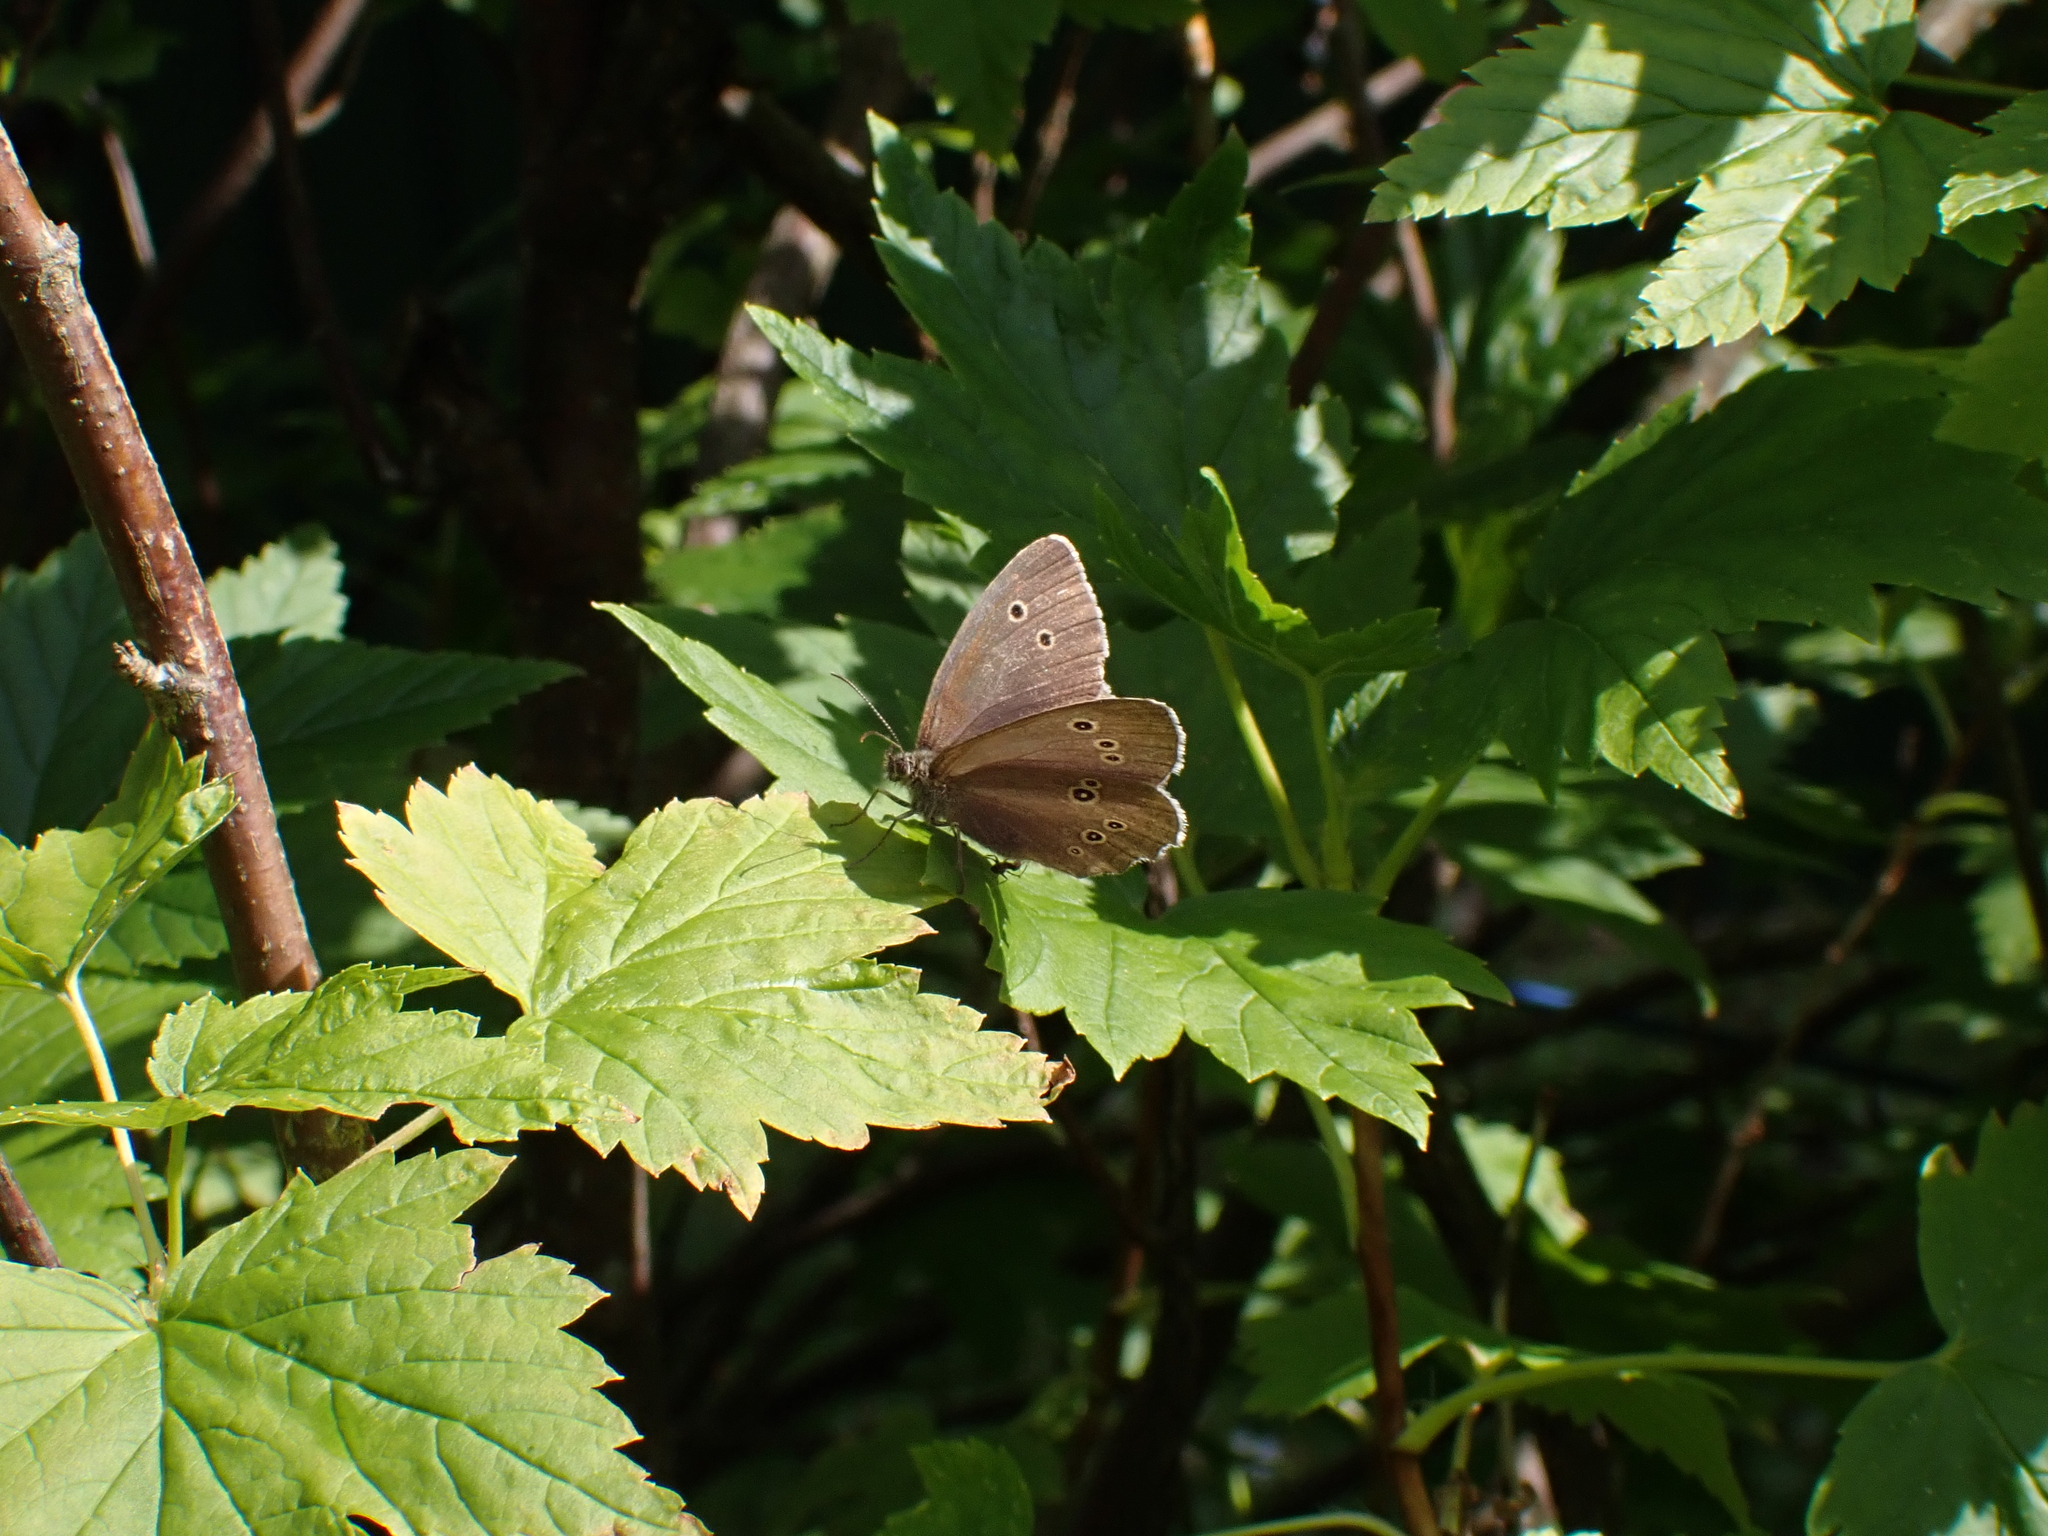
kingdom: Animalia
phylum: Arthropoda
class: Insecta
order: Lepidoptera
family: Nymphalidae
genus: Aphantopus
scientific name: Aphantopus hyperantus
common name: Ringlet
